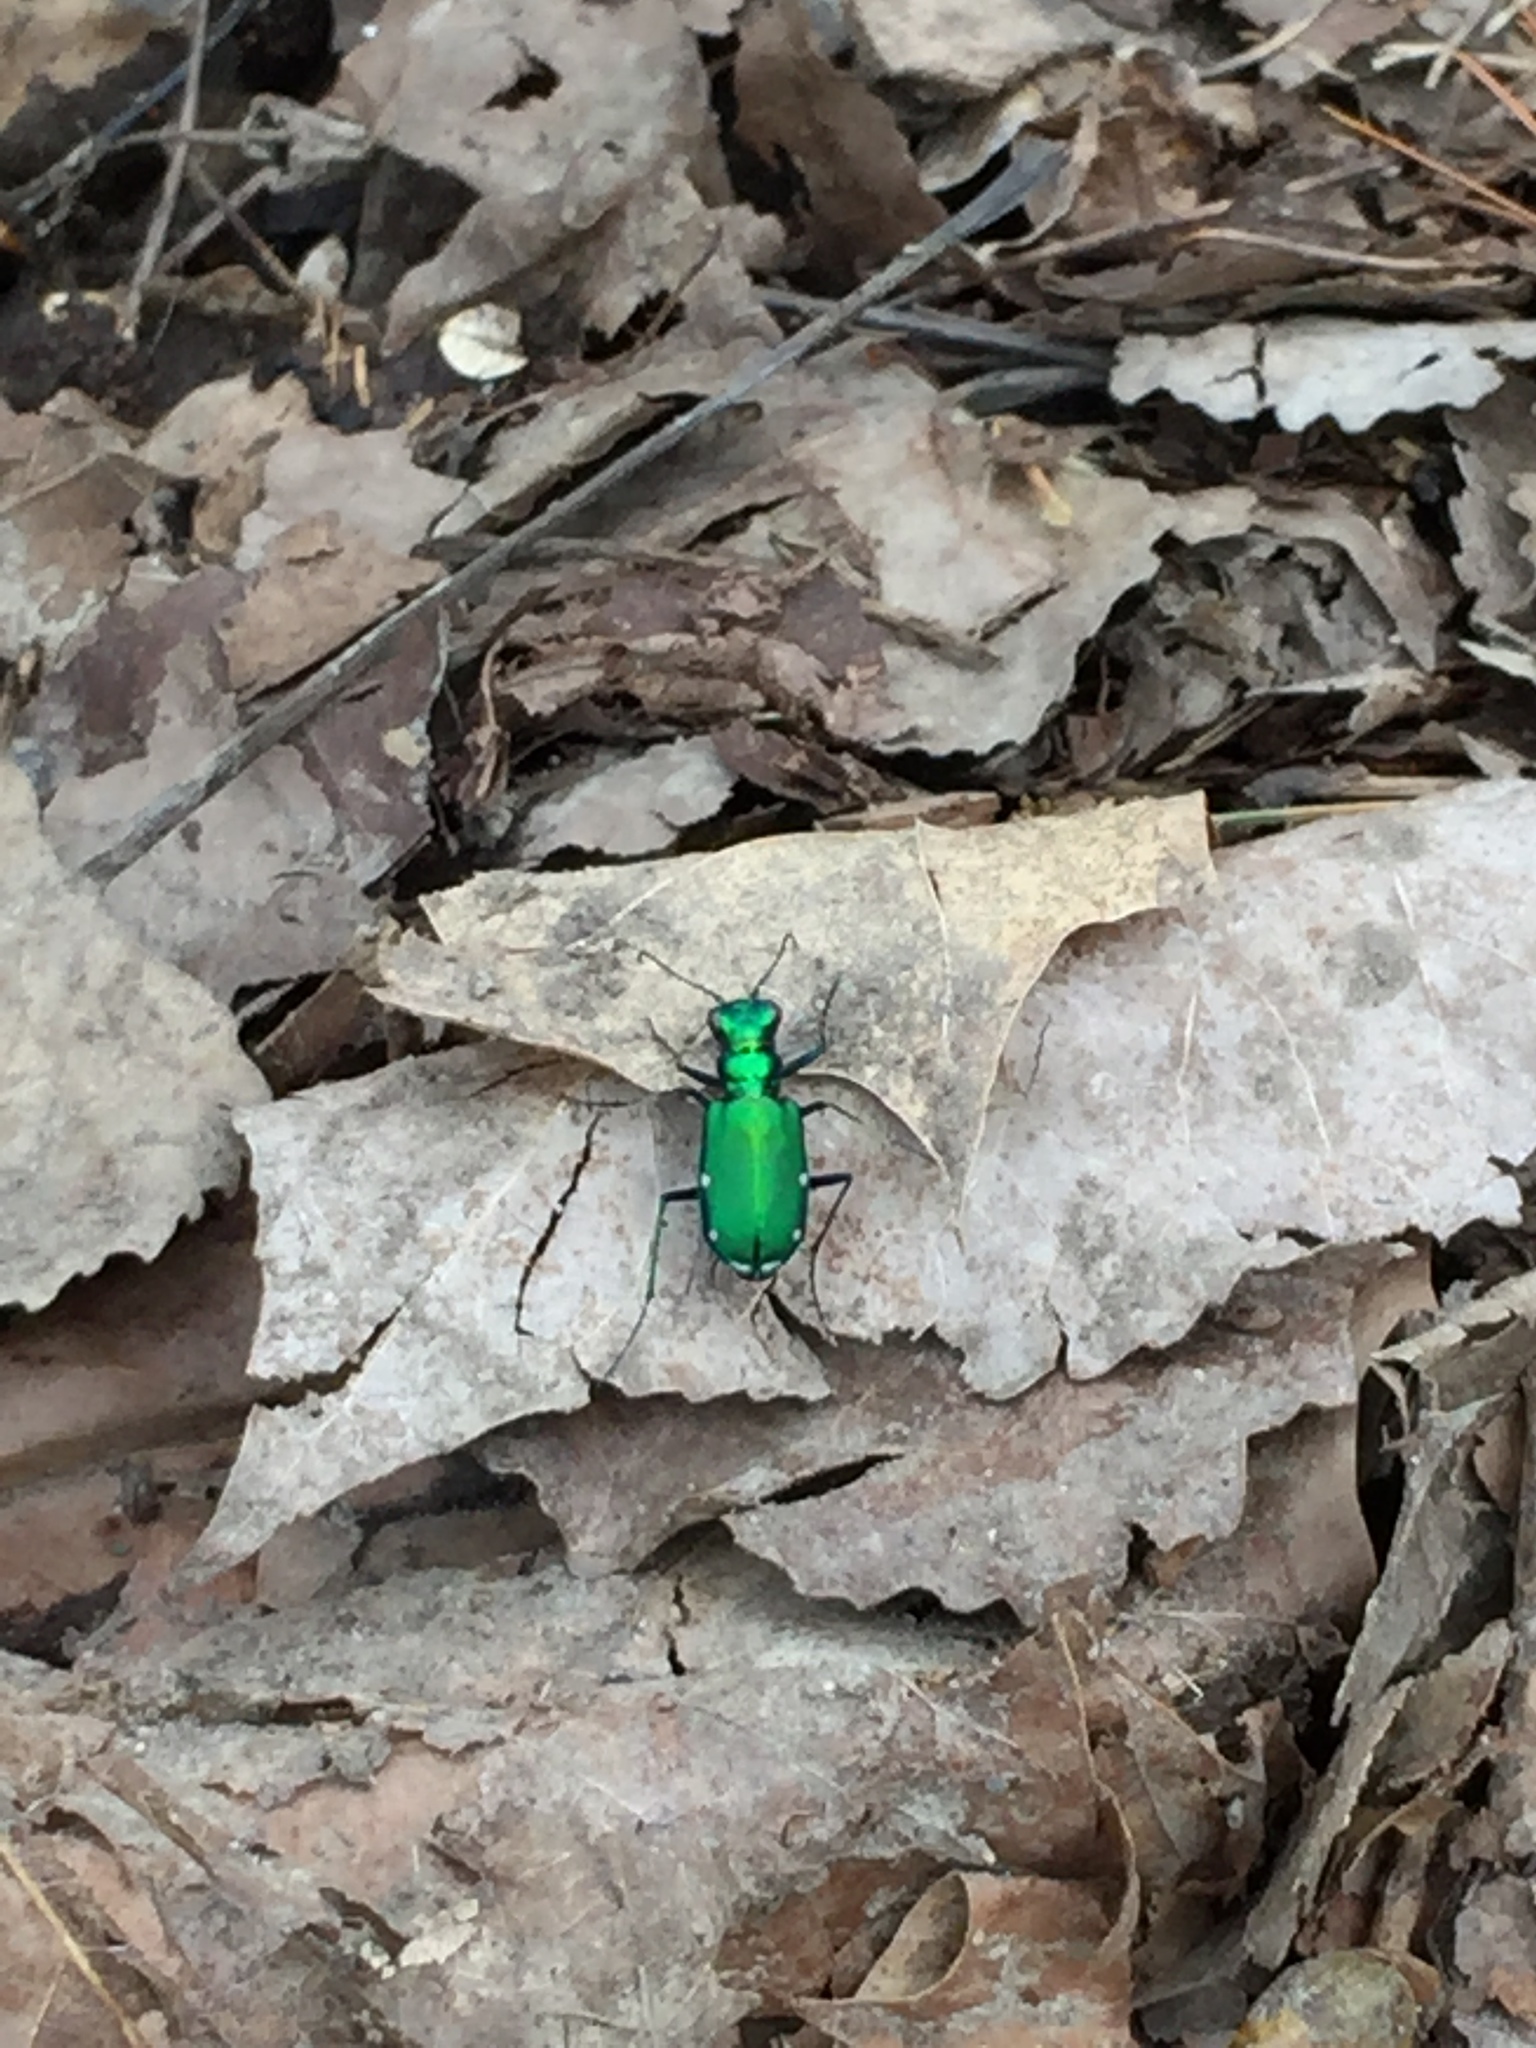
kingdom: Animalia
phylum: Arthropoda
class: Insecta
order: Coleoptera
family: Carabidae
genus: Cicindela
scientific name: Cicindela sexguttata
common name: Six-spotted tiger beetle
